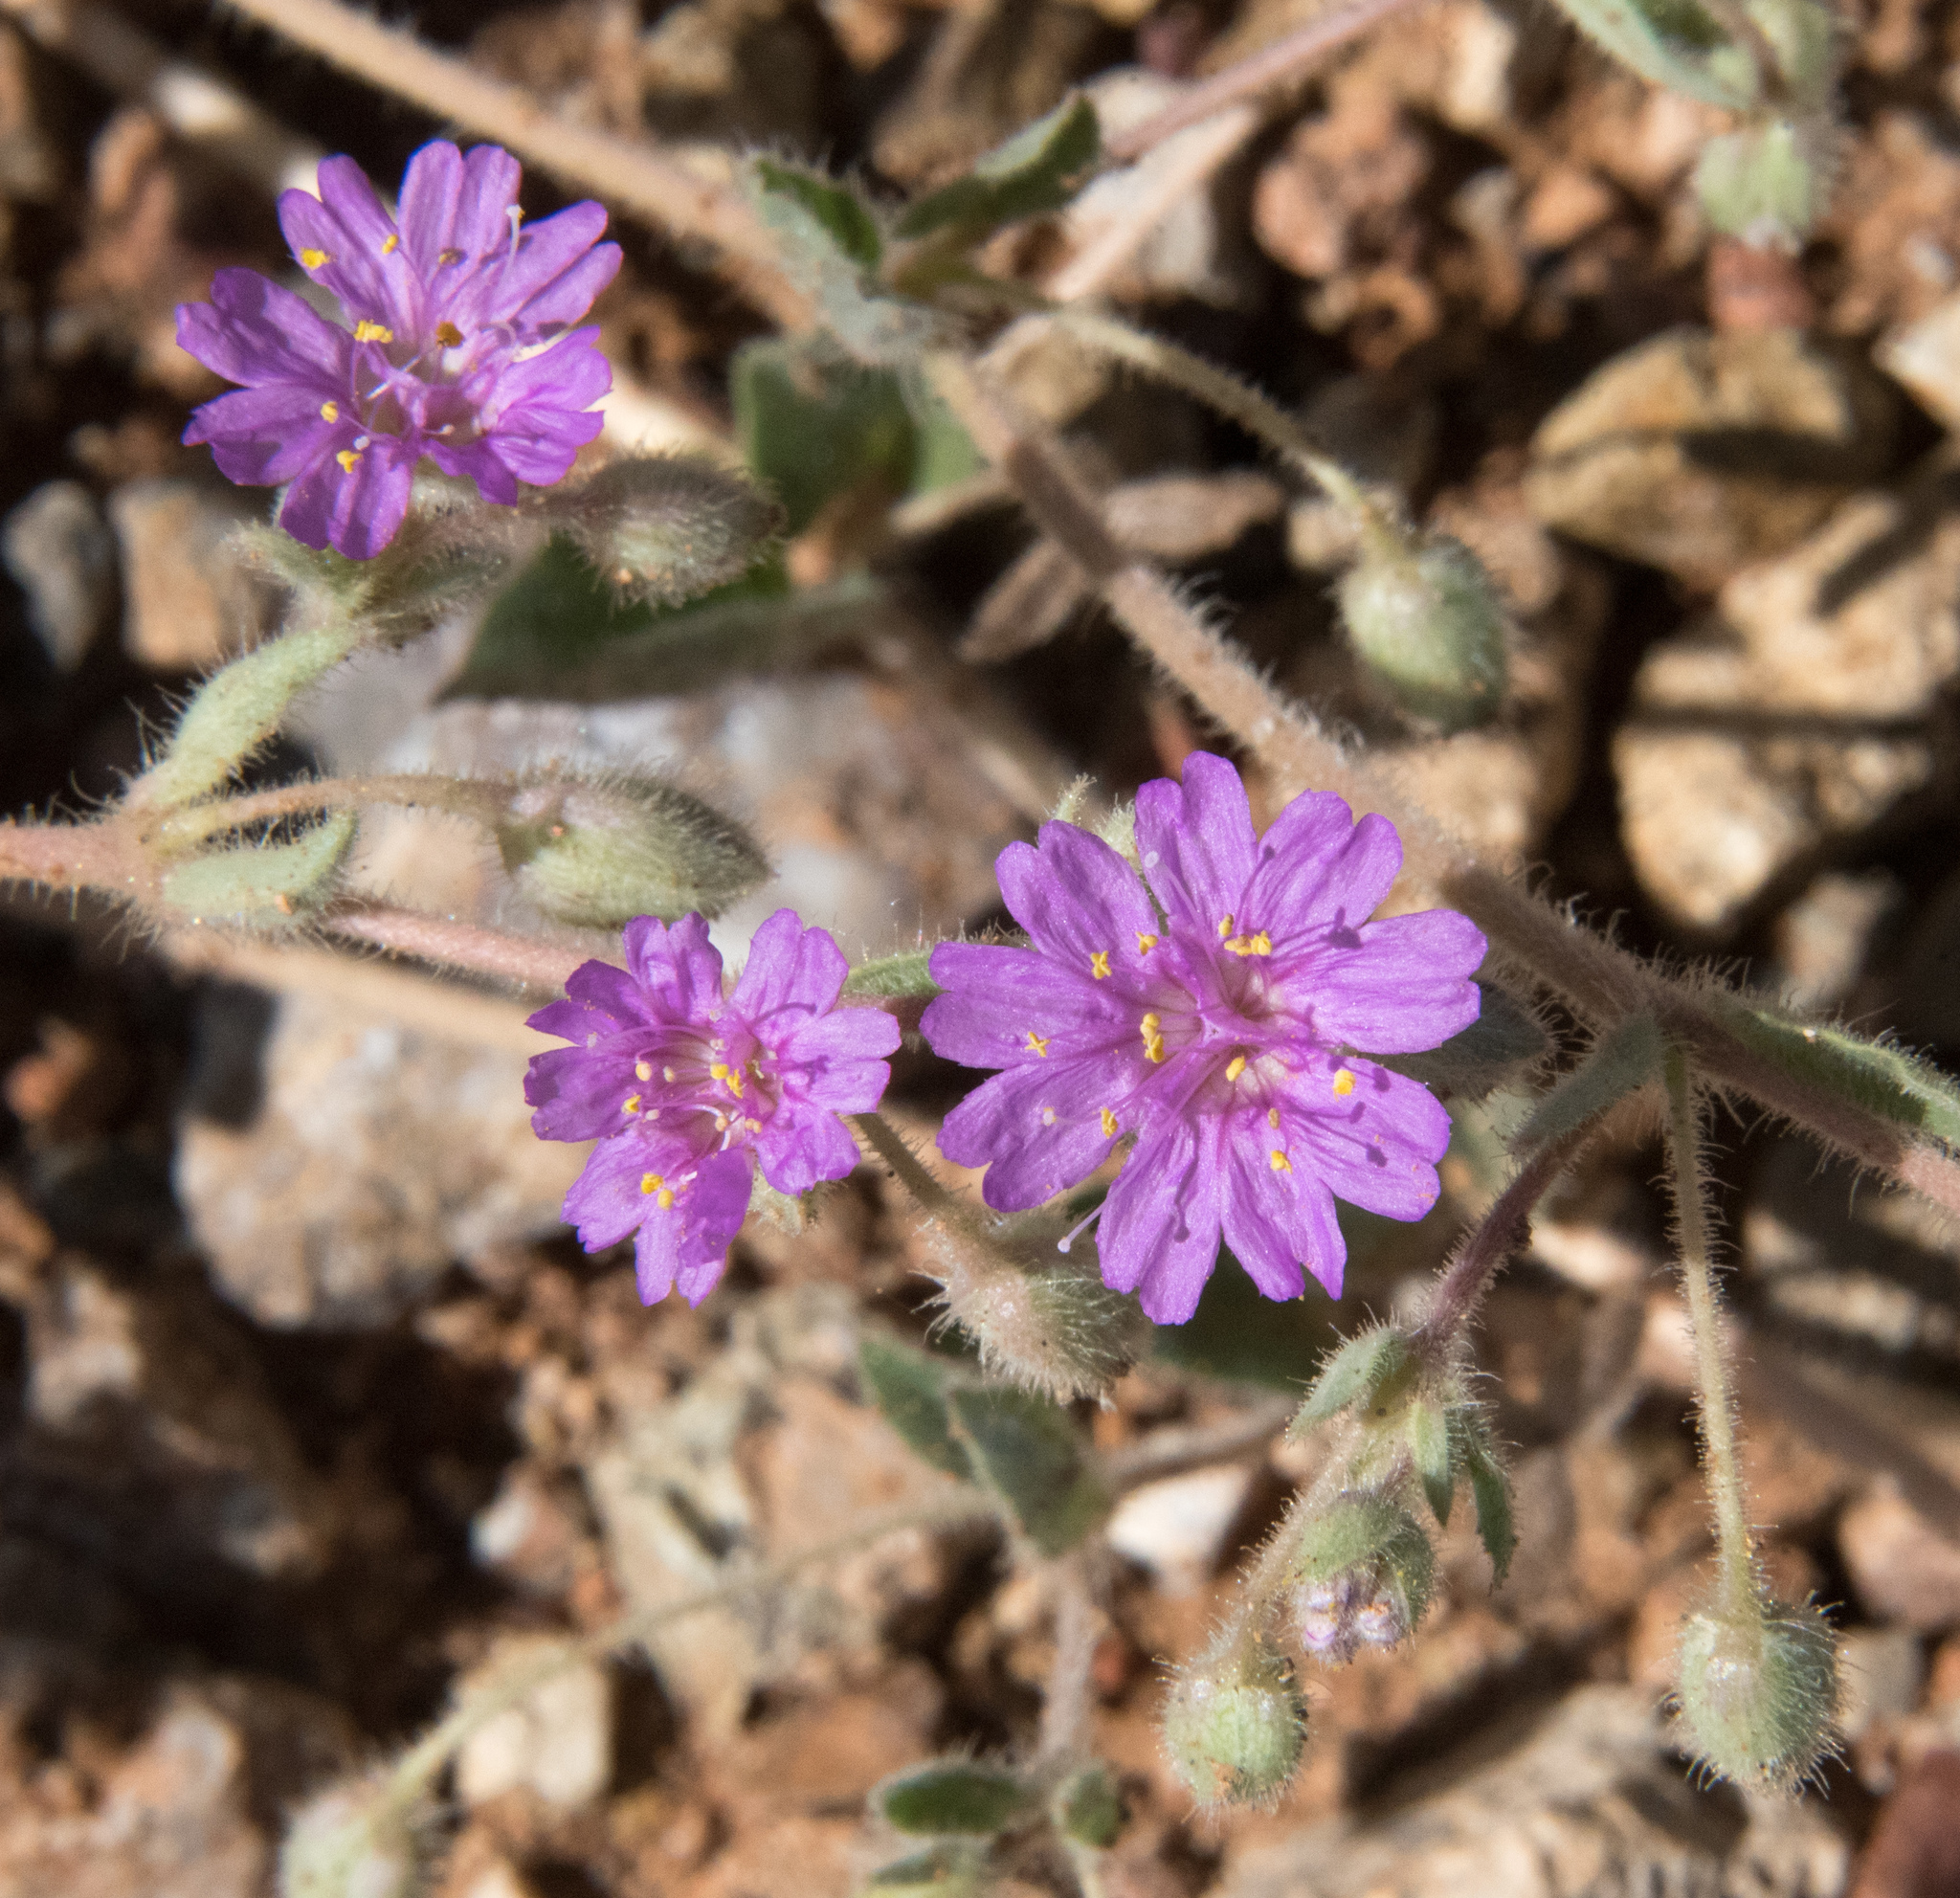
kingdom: Plantae
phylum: Tracheophyta
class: Magnoliopsida
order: Caryophyllales
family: Nyctaginaceae
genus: Allionia
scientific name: Allionia incarnata
